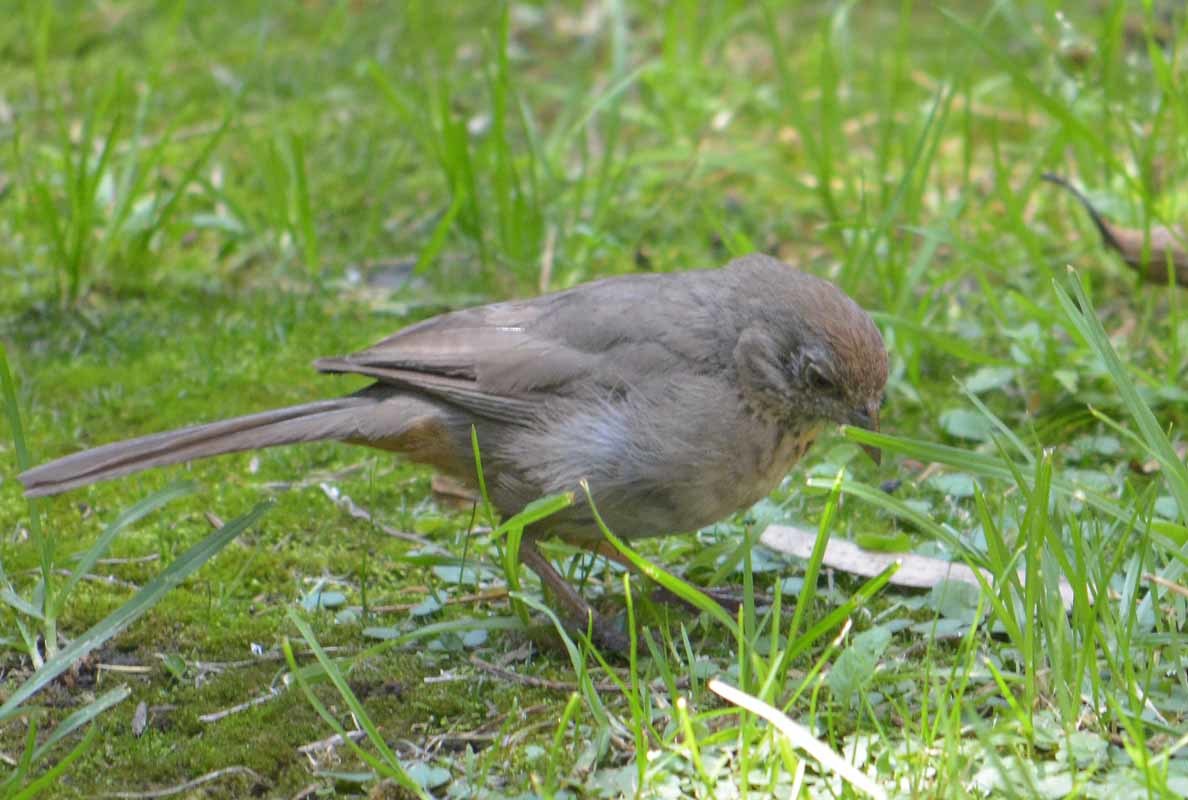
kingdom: Animalia
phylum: Chordata
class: Aves
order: Passeriformes
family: Passerellidae
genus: Melozone
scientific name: Melozone fusca
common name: Canyon towhee
